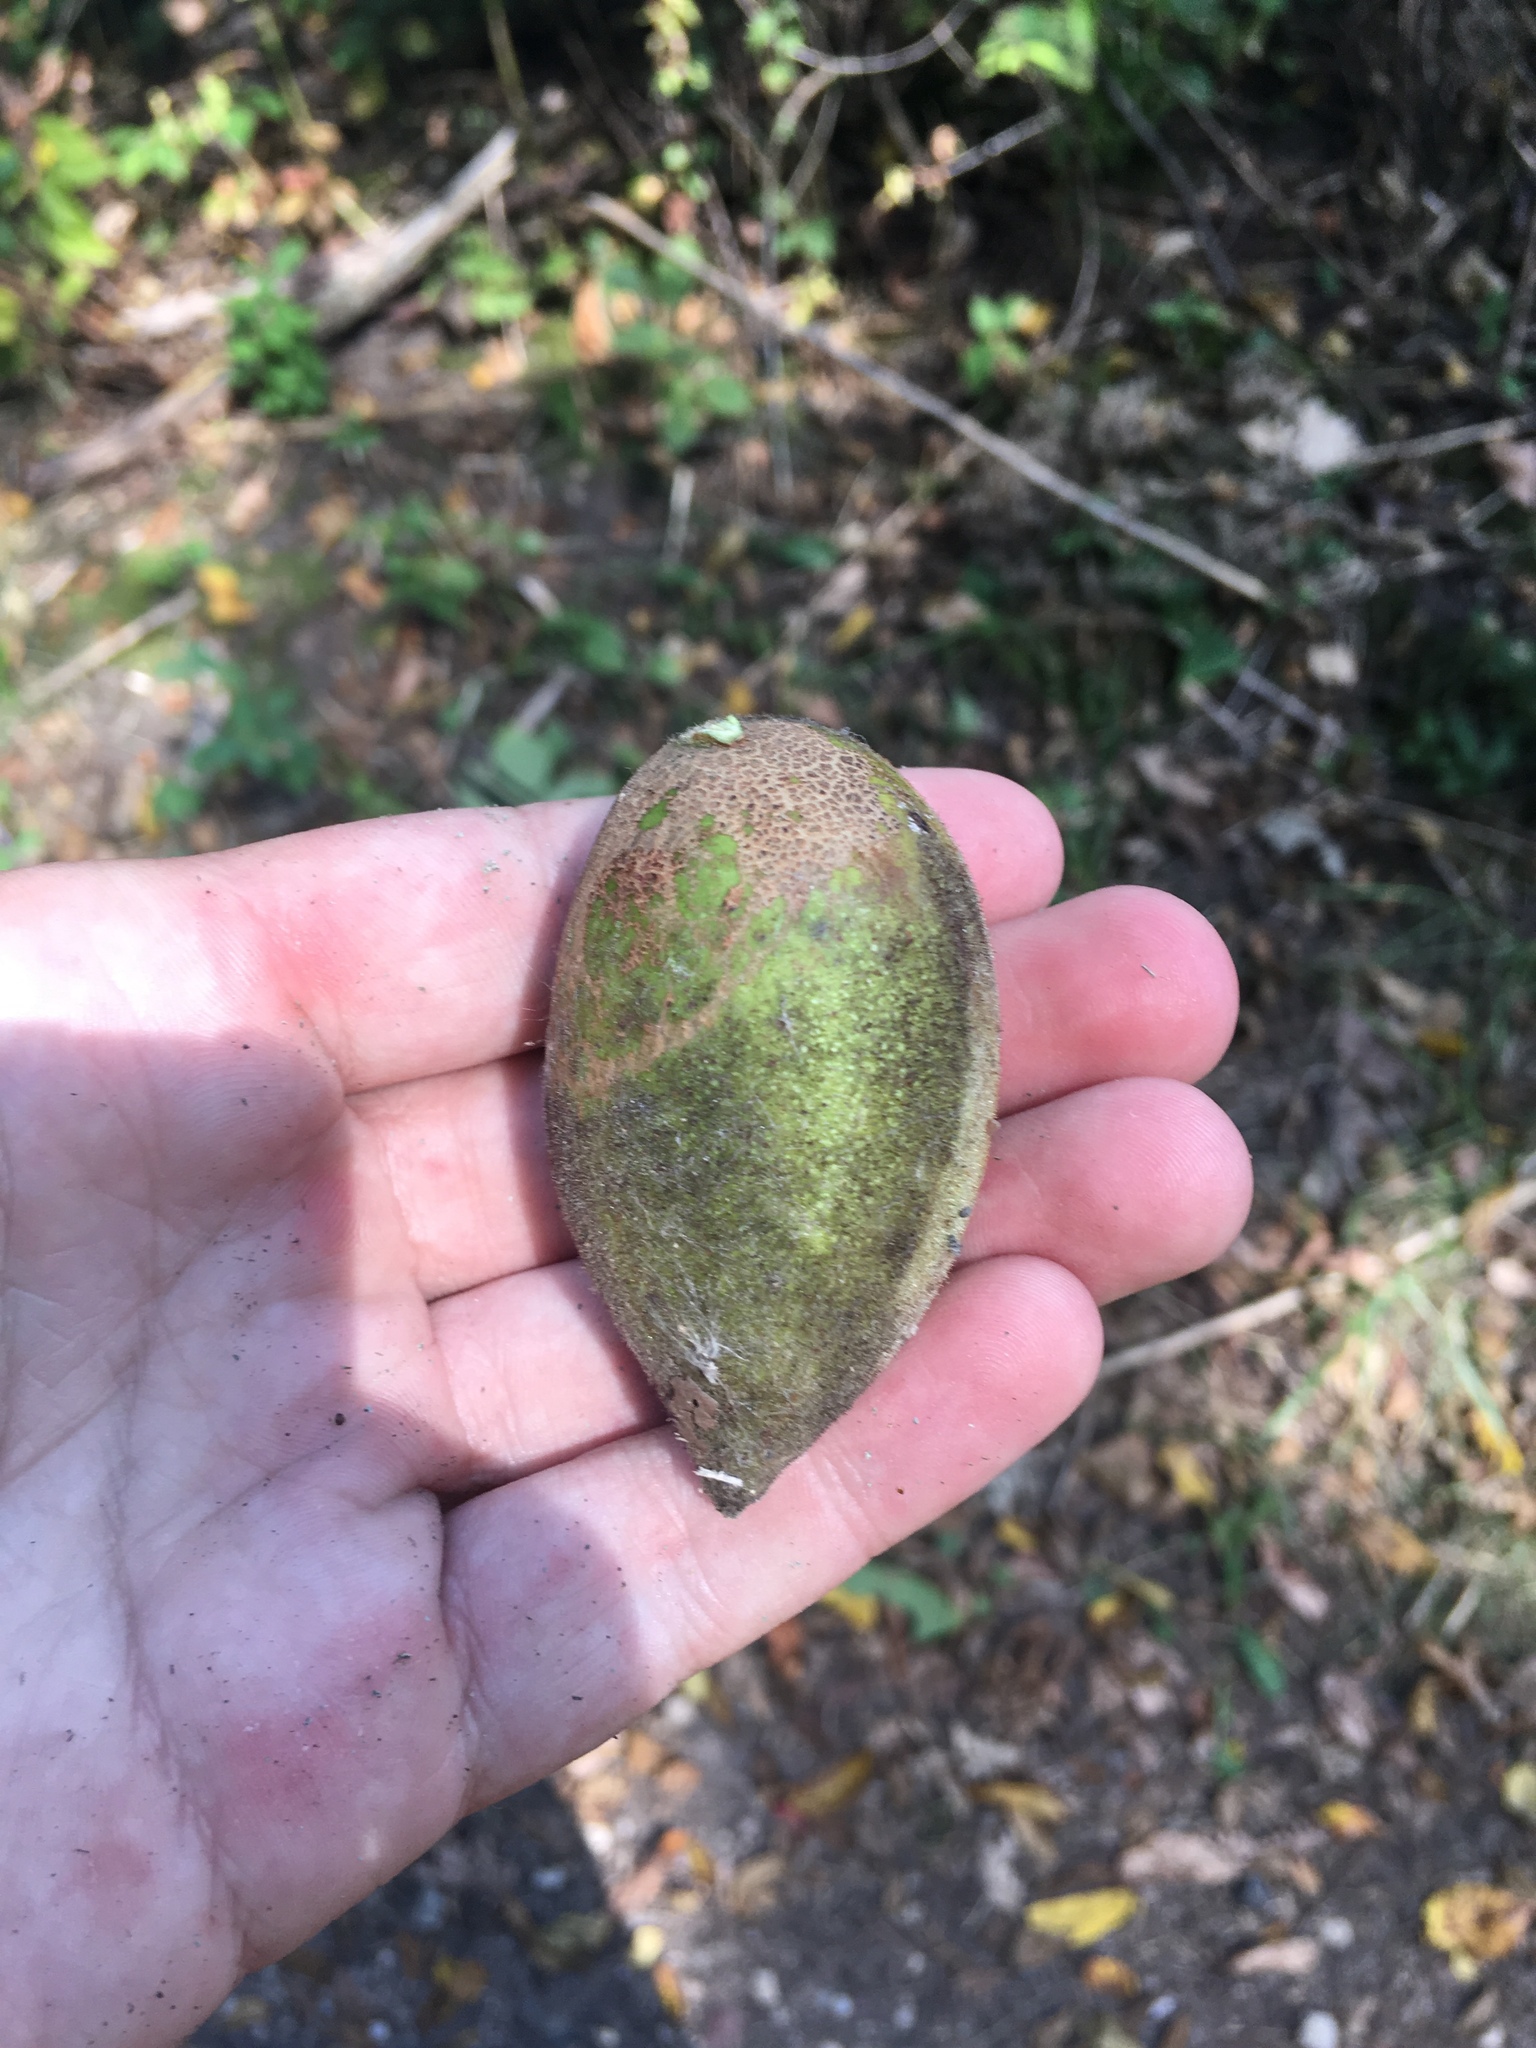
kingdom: Plantae
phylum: Tracheophyta
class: Magnoliopsida
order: Fagales
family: Juglandaceae
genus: Juglans
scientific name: Juglans cinerea
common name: Butternut
